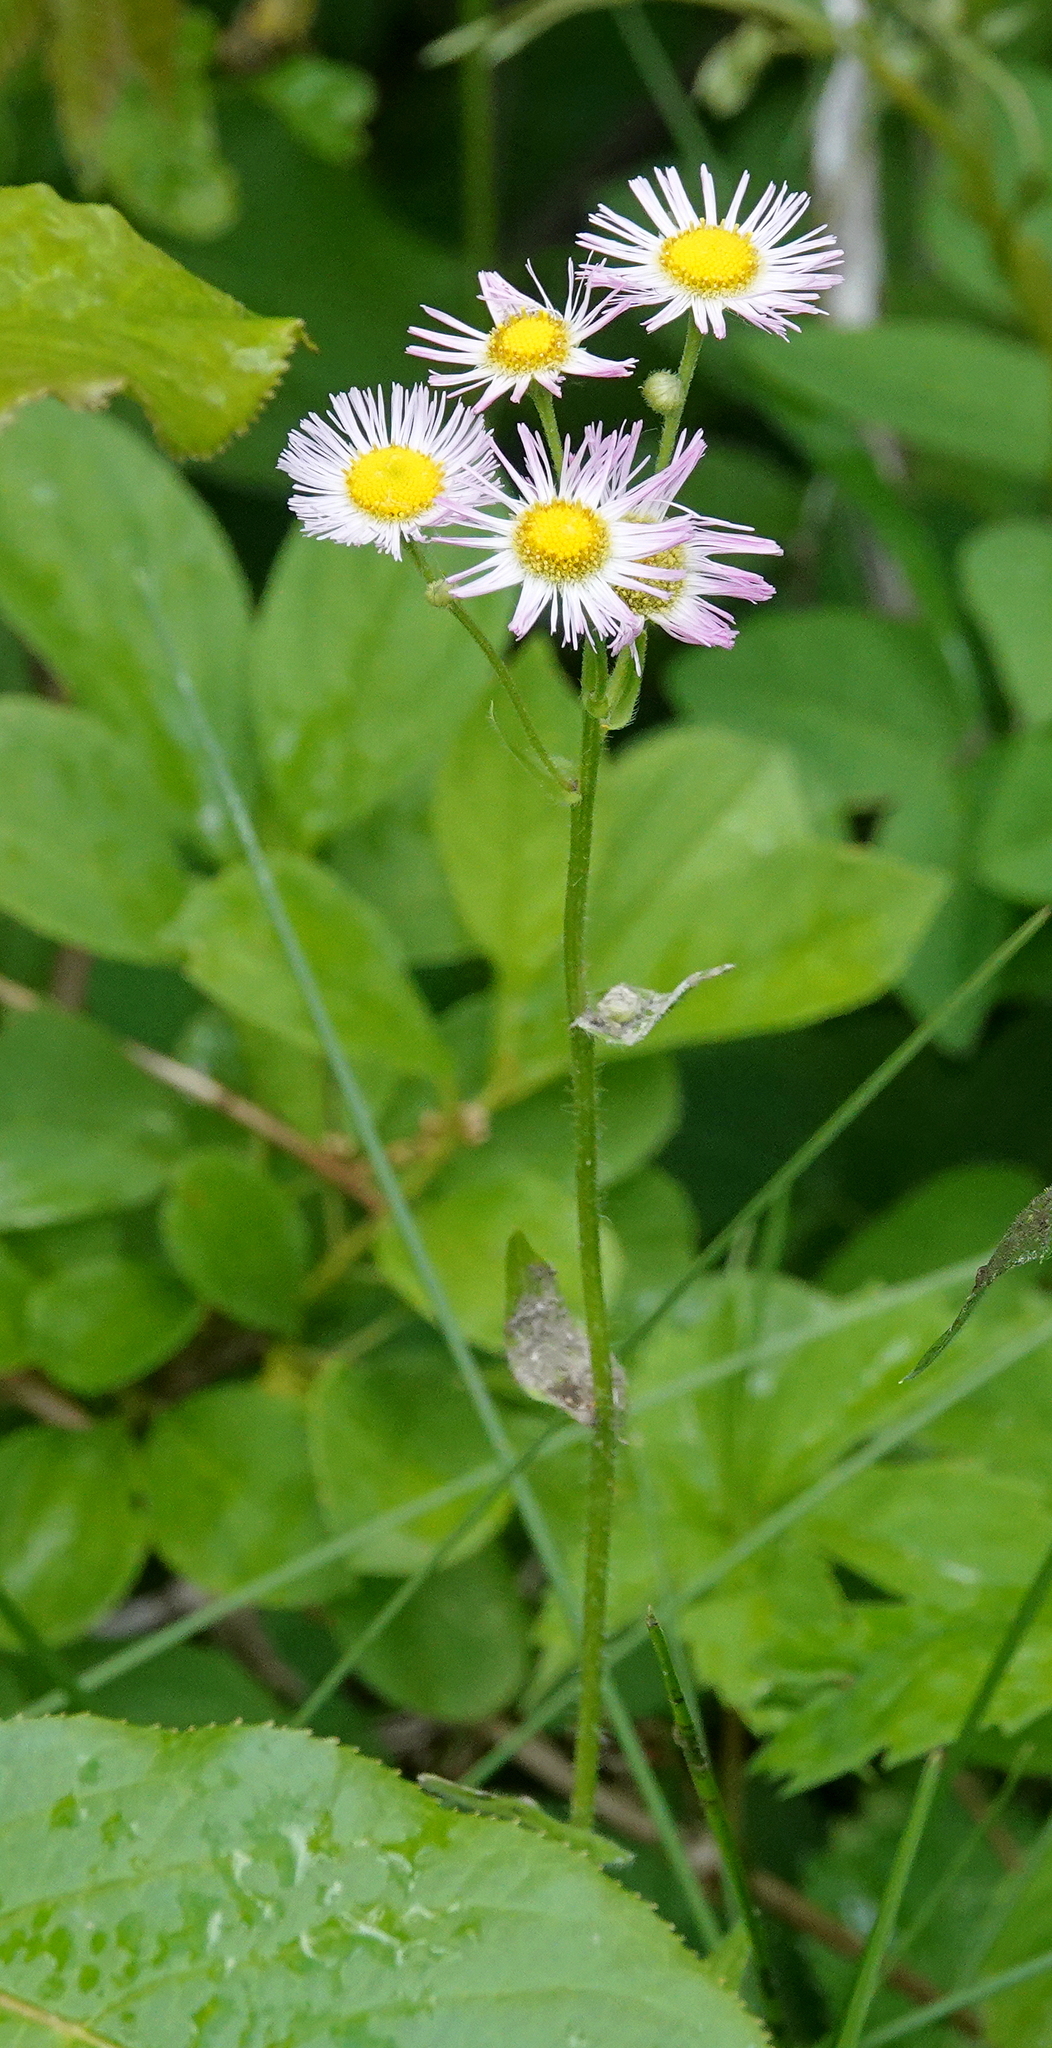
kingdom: Plantae
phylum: Tracheophyta
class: Magnoliopsida
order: Asterales
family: Asteraceae
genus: Erigeron
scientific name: Erigeron philadelphicus
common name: Robin's-plantain
